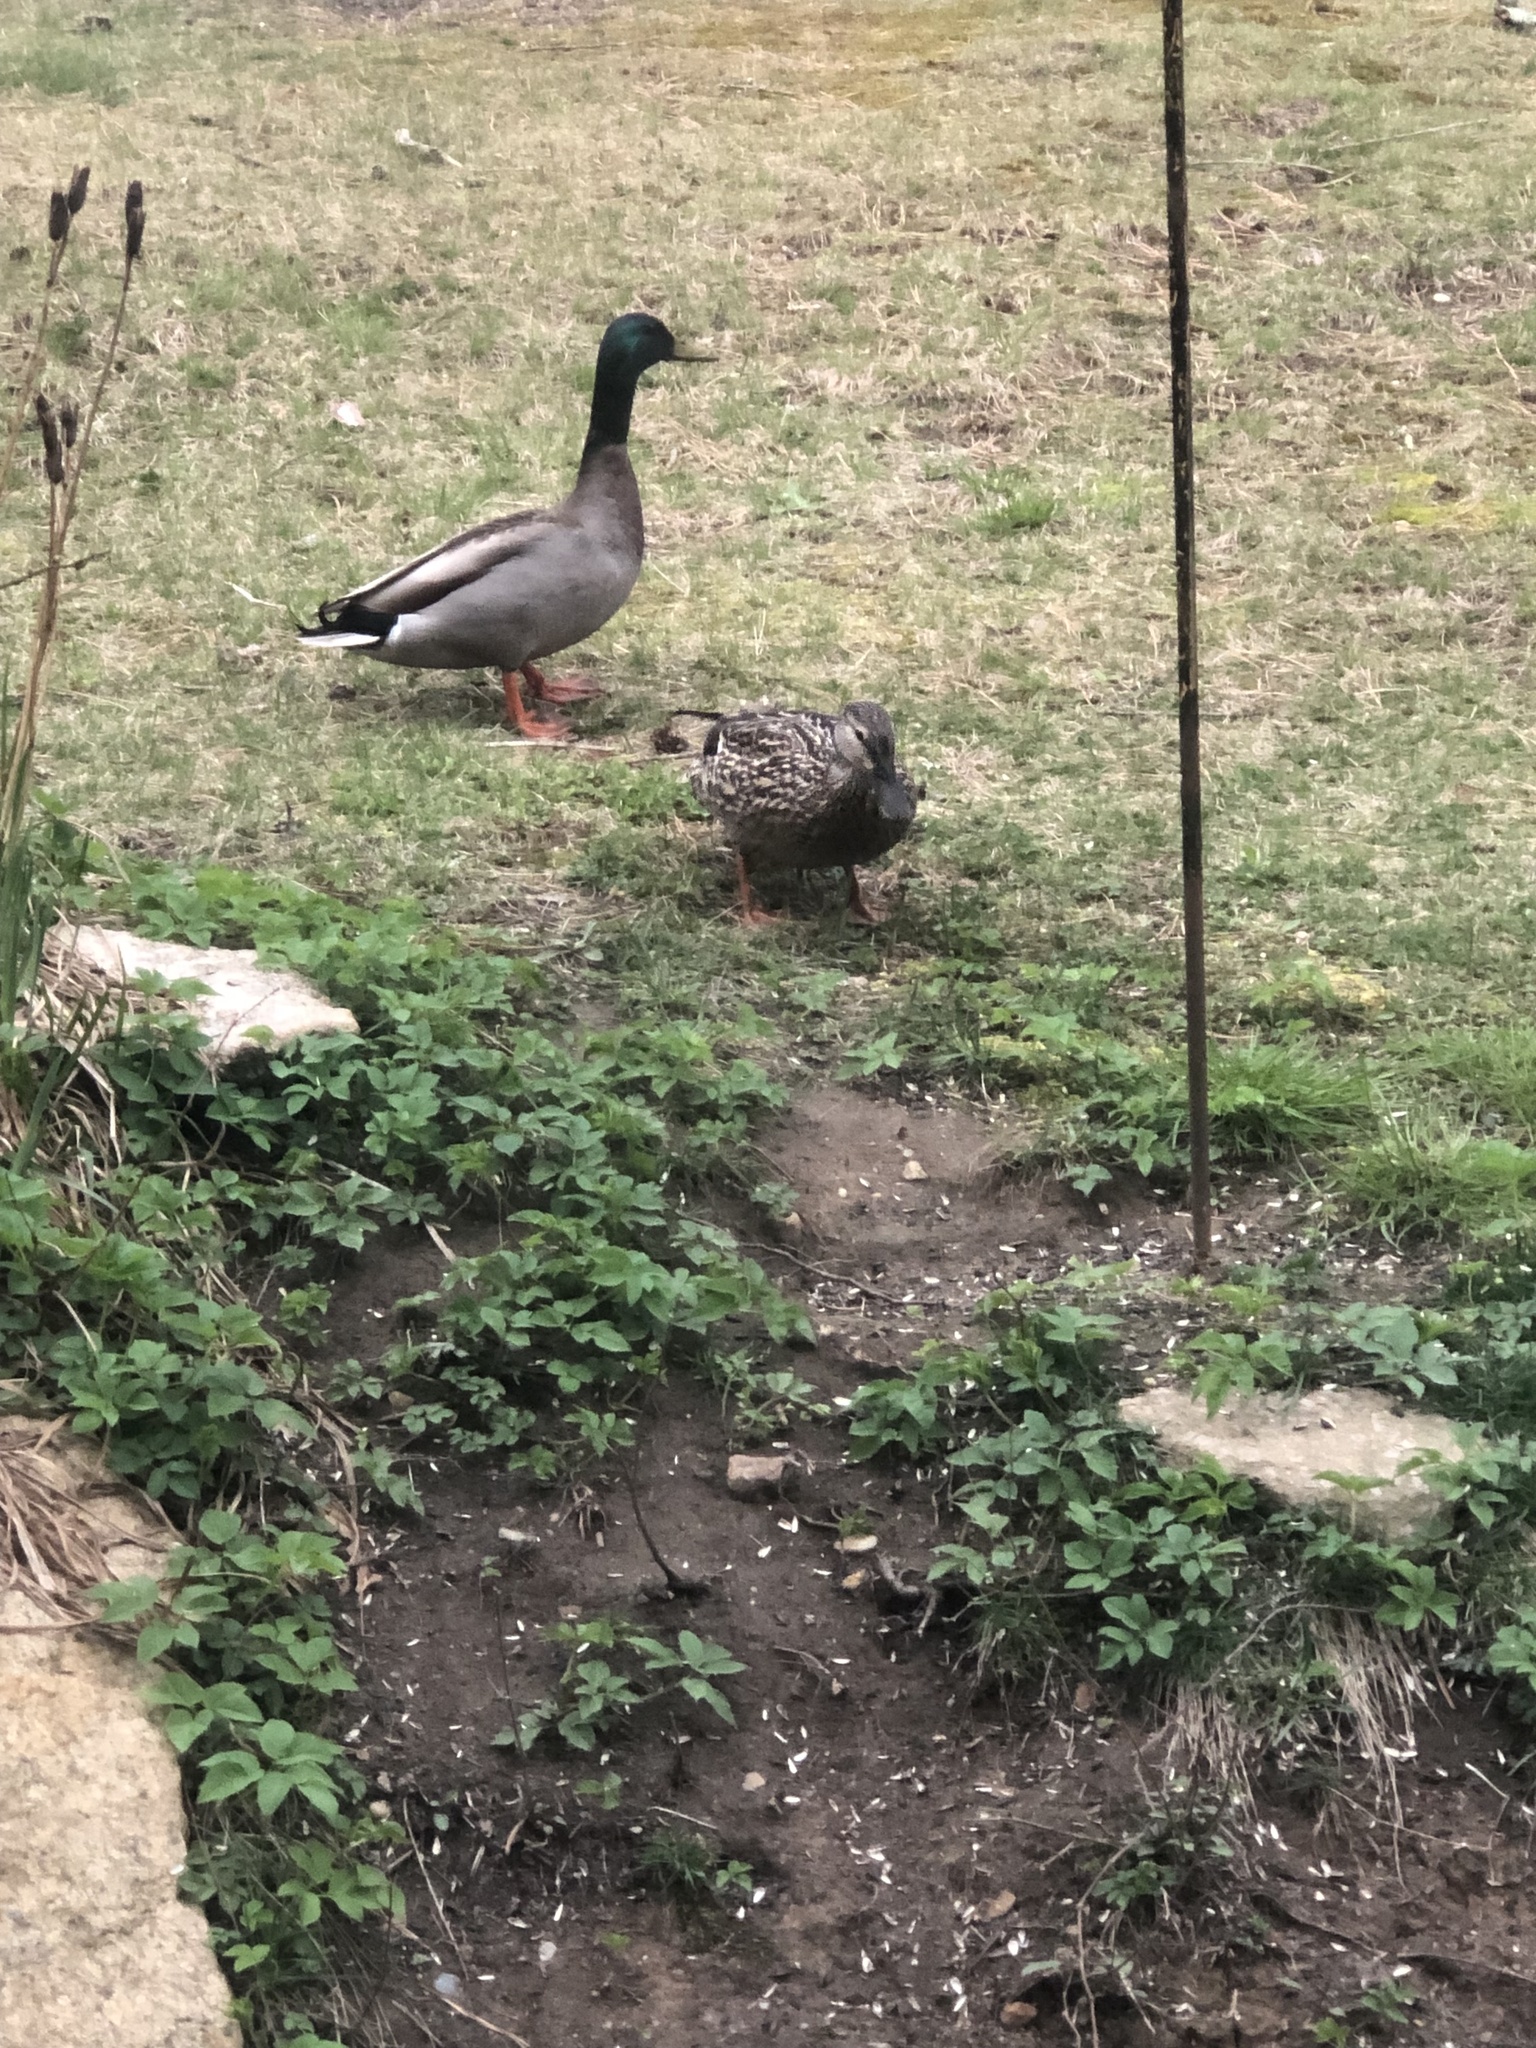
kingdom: Animalia
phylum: Chordata
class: Aves
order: Anseriformes
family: Anatidae
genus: Anas
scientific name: Anas platyrhynchos
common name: Mallard
